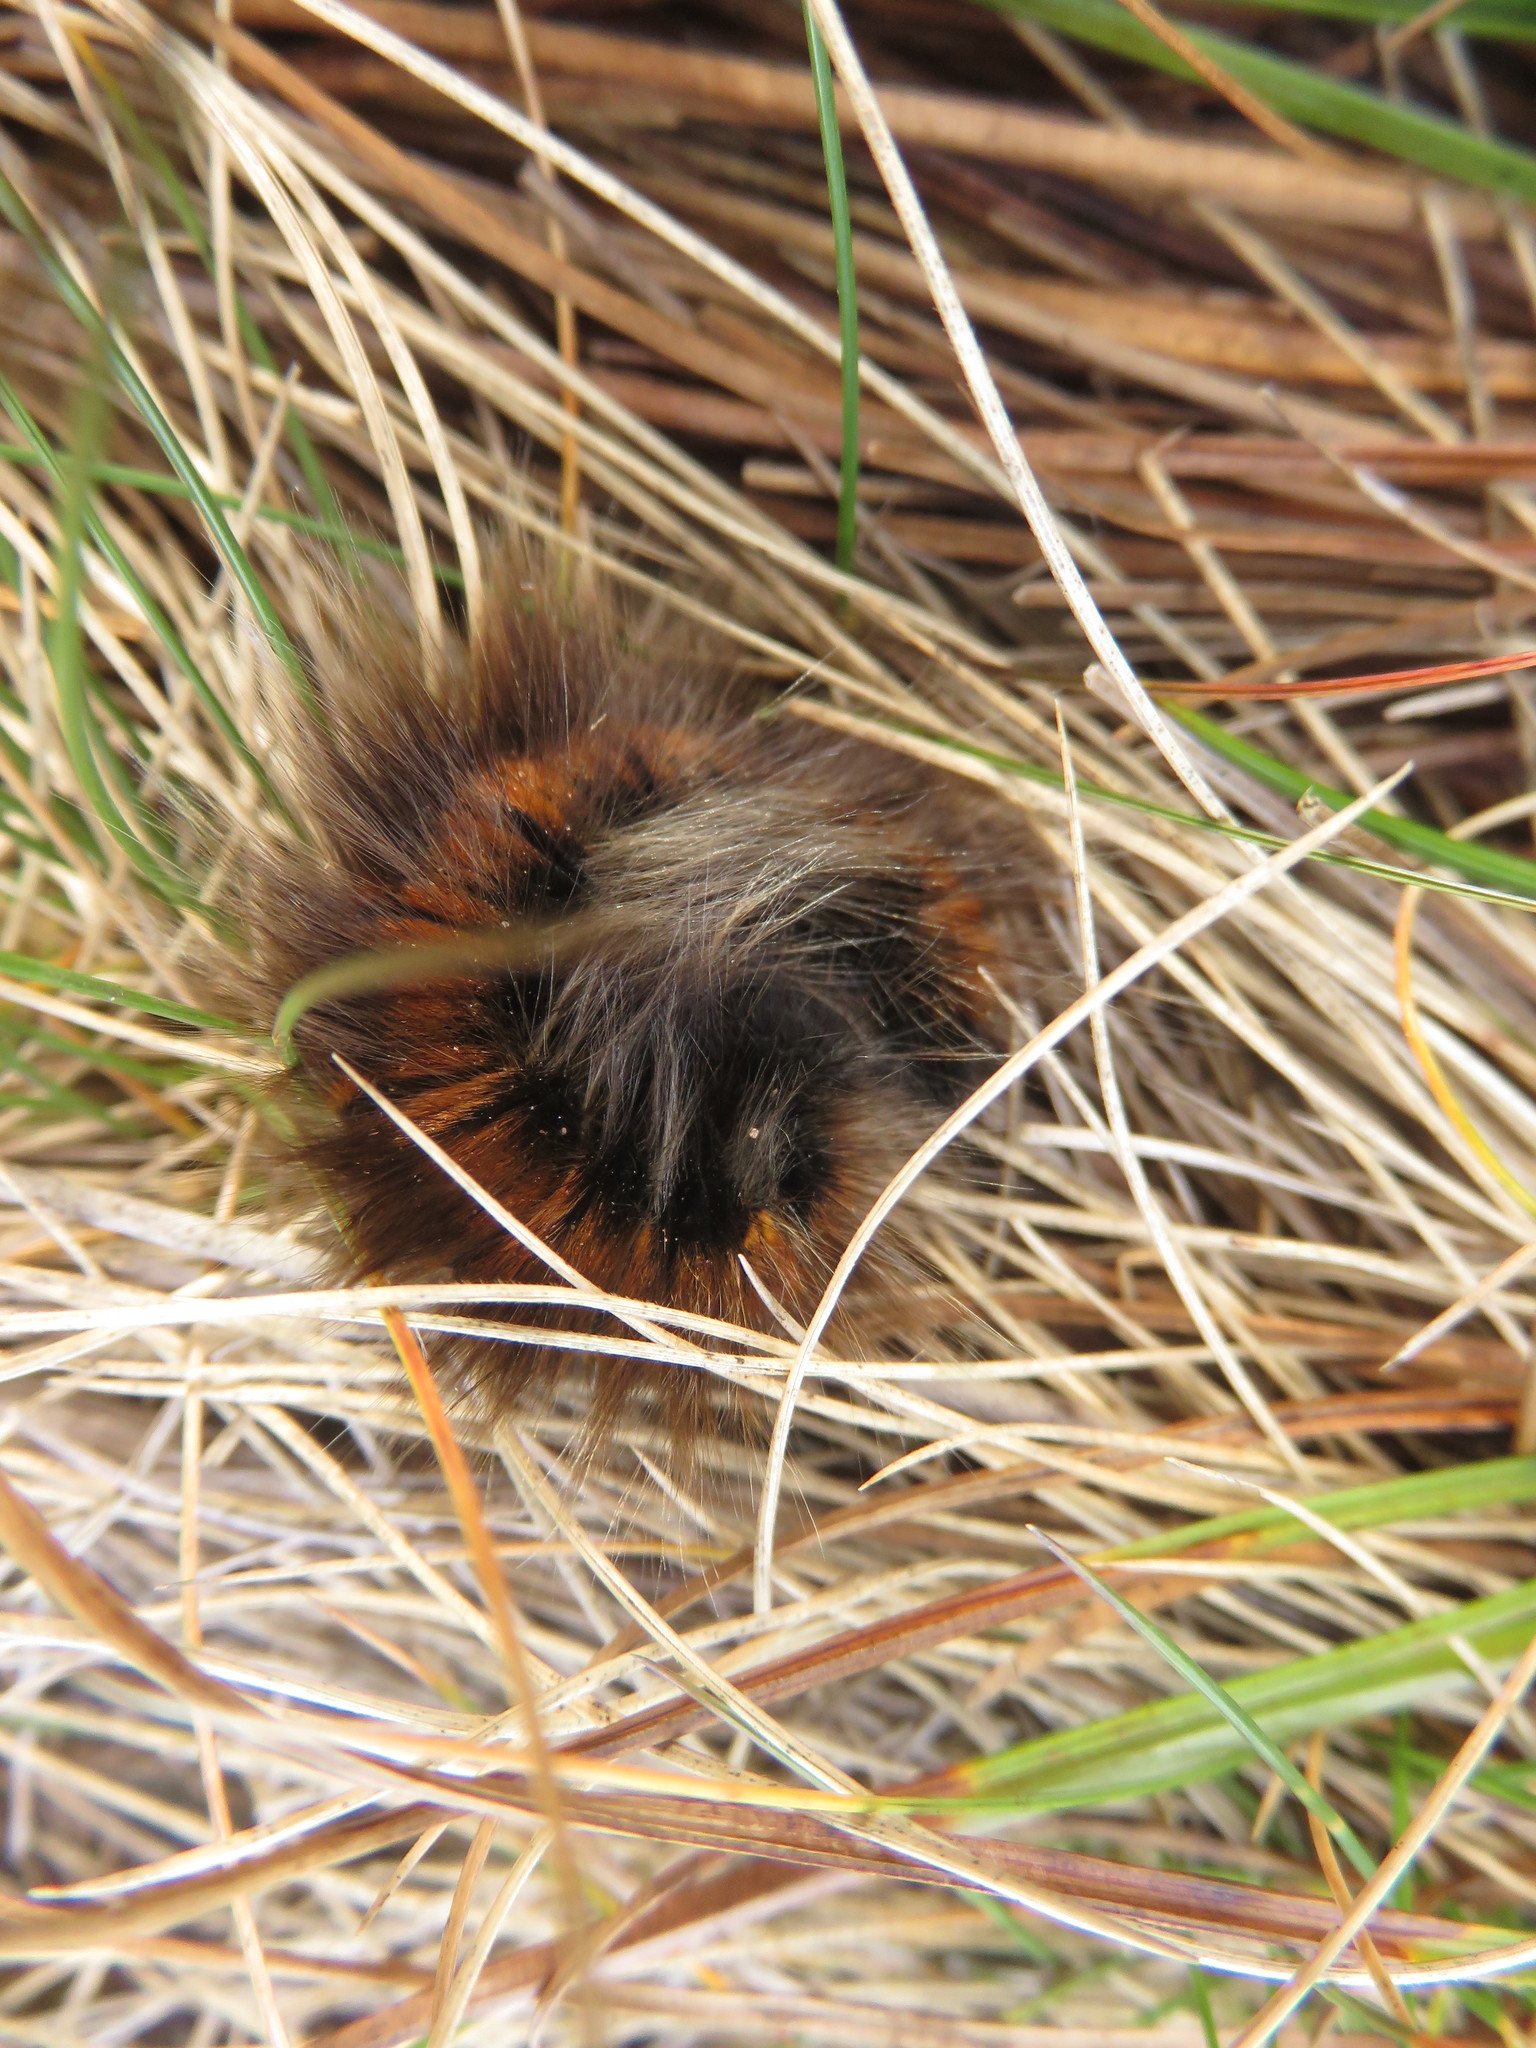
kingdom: Animalia
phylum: Arthropoda
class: Insecta
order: Lepidoptera
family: Lasiocampidae
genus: Macrothylacia
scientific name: Macrothylacia rubi
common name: Fox moth
